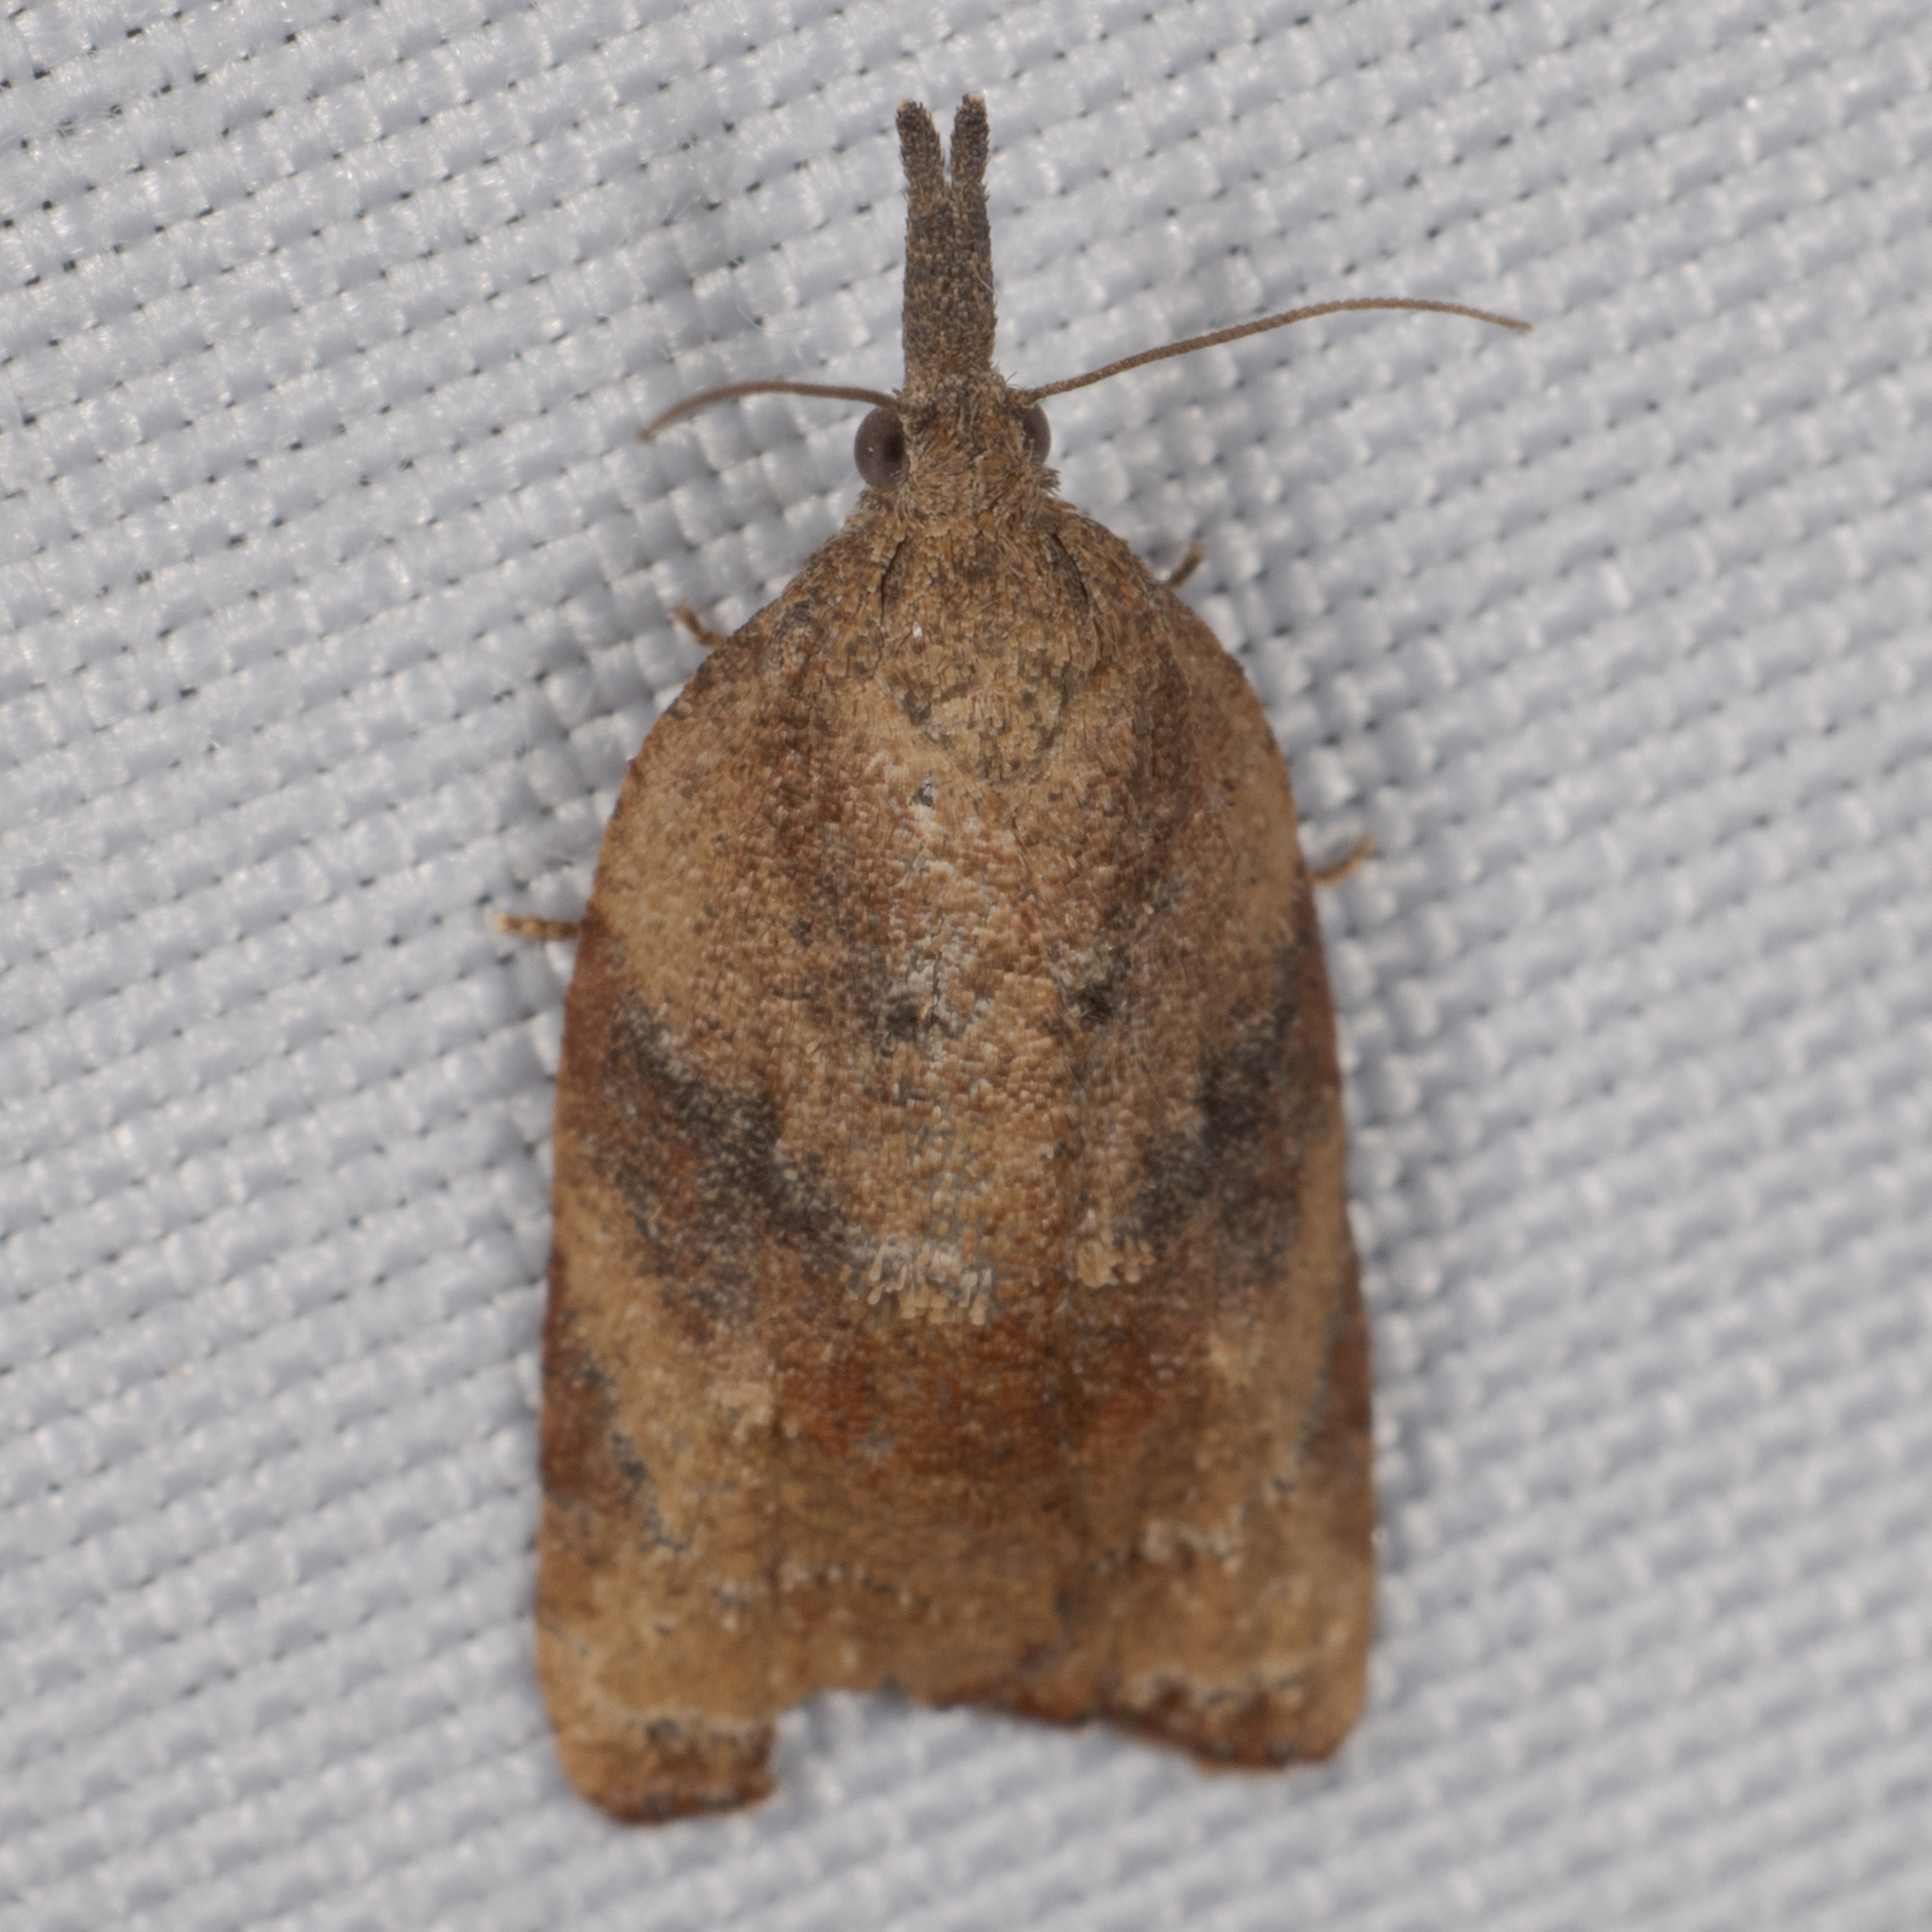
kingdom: Animalia
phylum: Arthropoda
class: Insecta
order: Lepidoptera
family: Tortricidae
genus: Platynota
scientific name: Platynota rostrana
